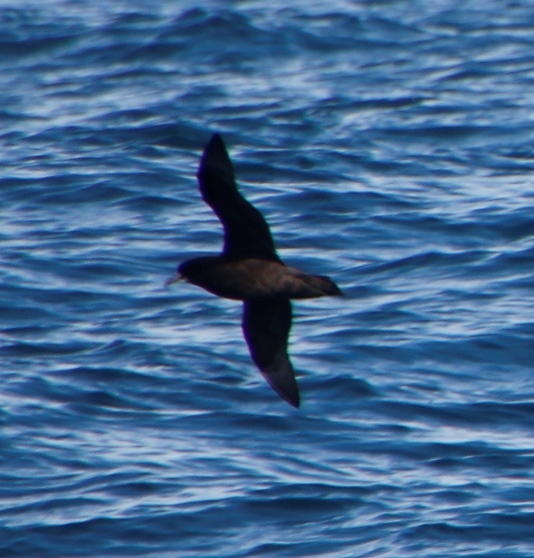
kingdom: Animalia
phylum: Chordata
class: Aves
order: Procellariiformes
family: Procellariidae
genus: Procellaria
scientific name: Procellaria aequinoctialis
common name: White-chinned petrel
